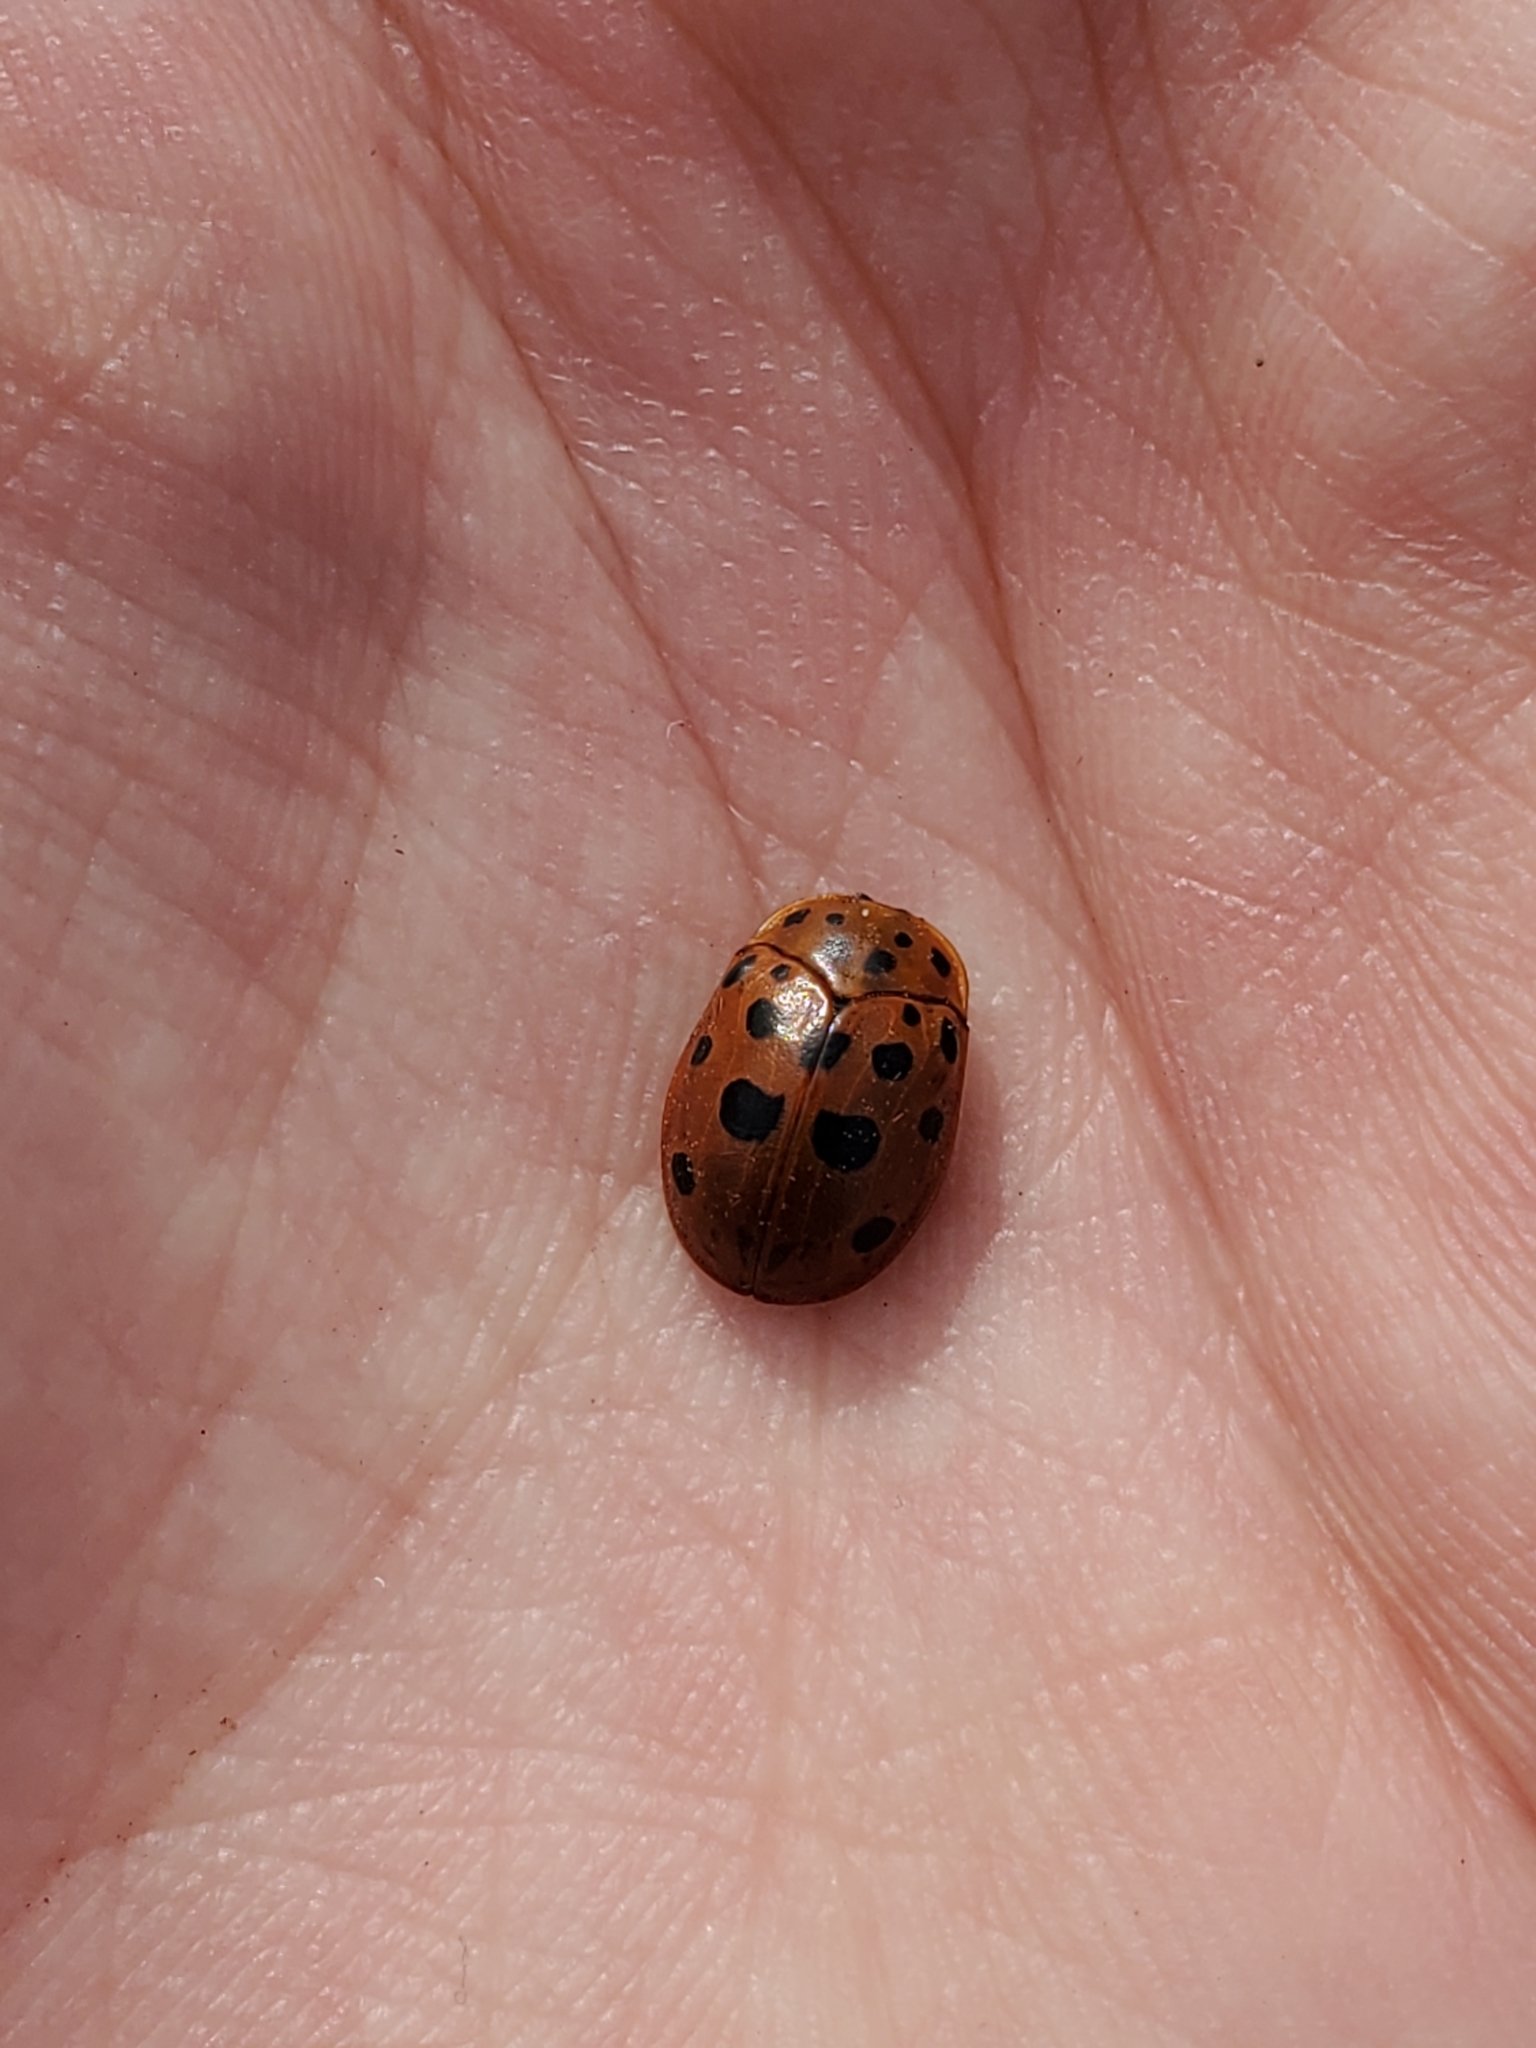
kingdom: Animalia
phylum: Arthropoda
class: Insecta
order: Coleoptera
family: Chrysomelidae
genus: Chelymorpha
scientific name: Chelymorpha cassidea
